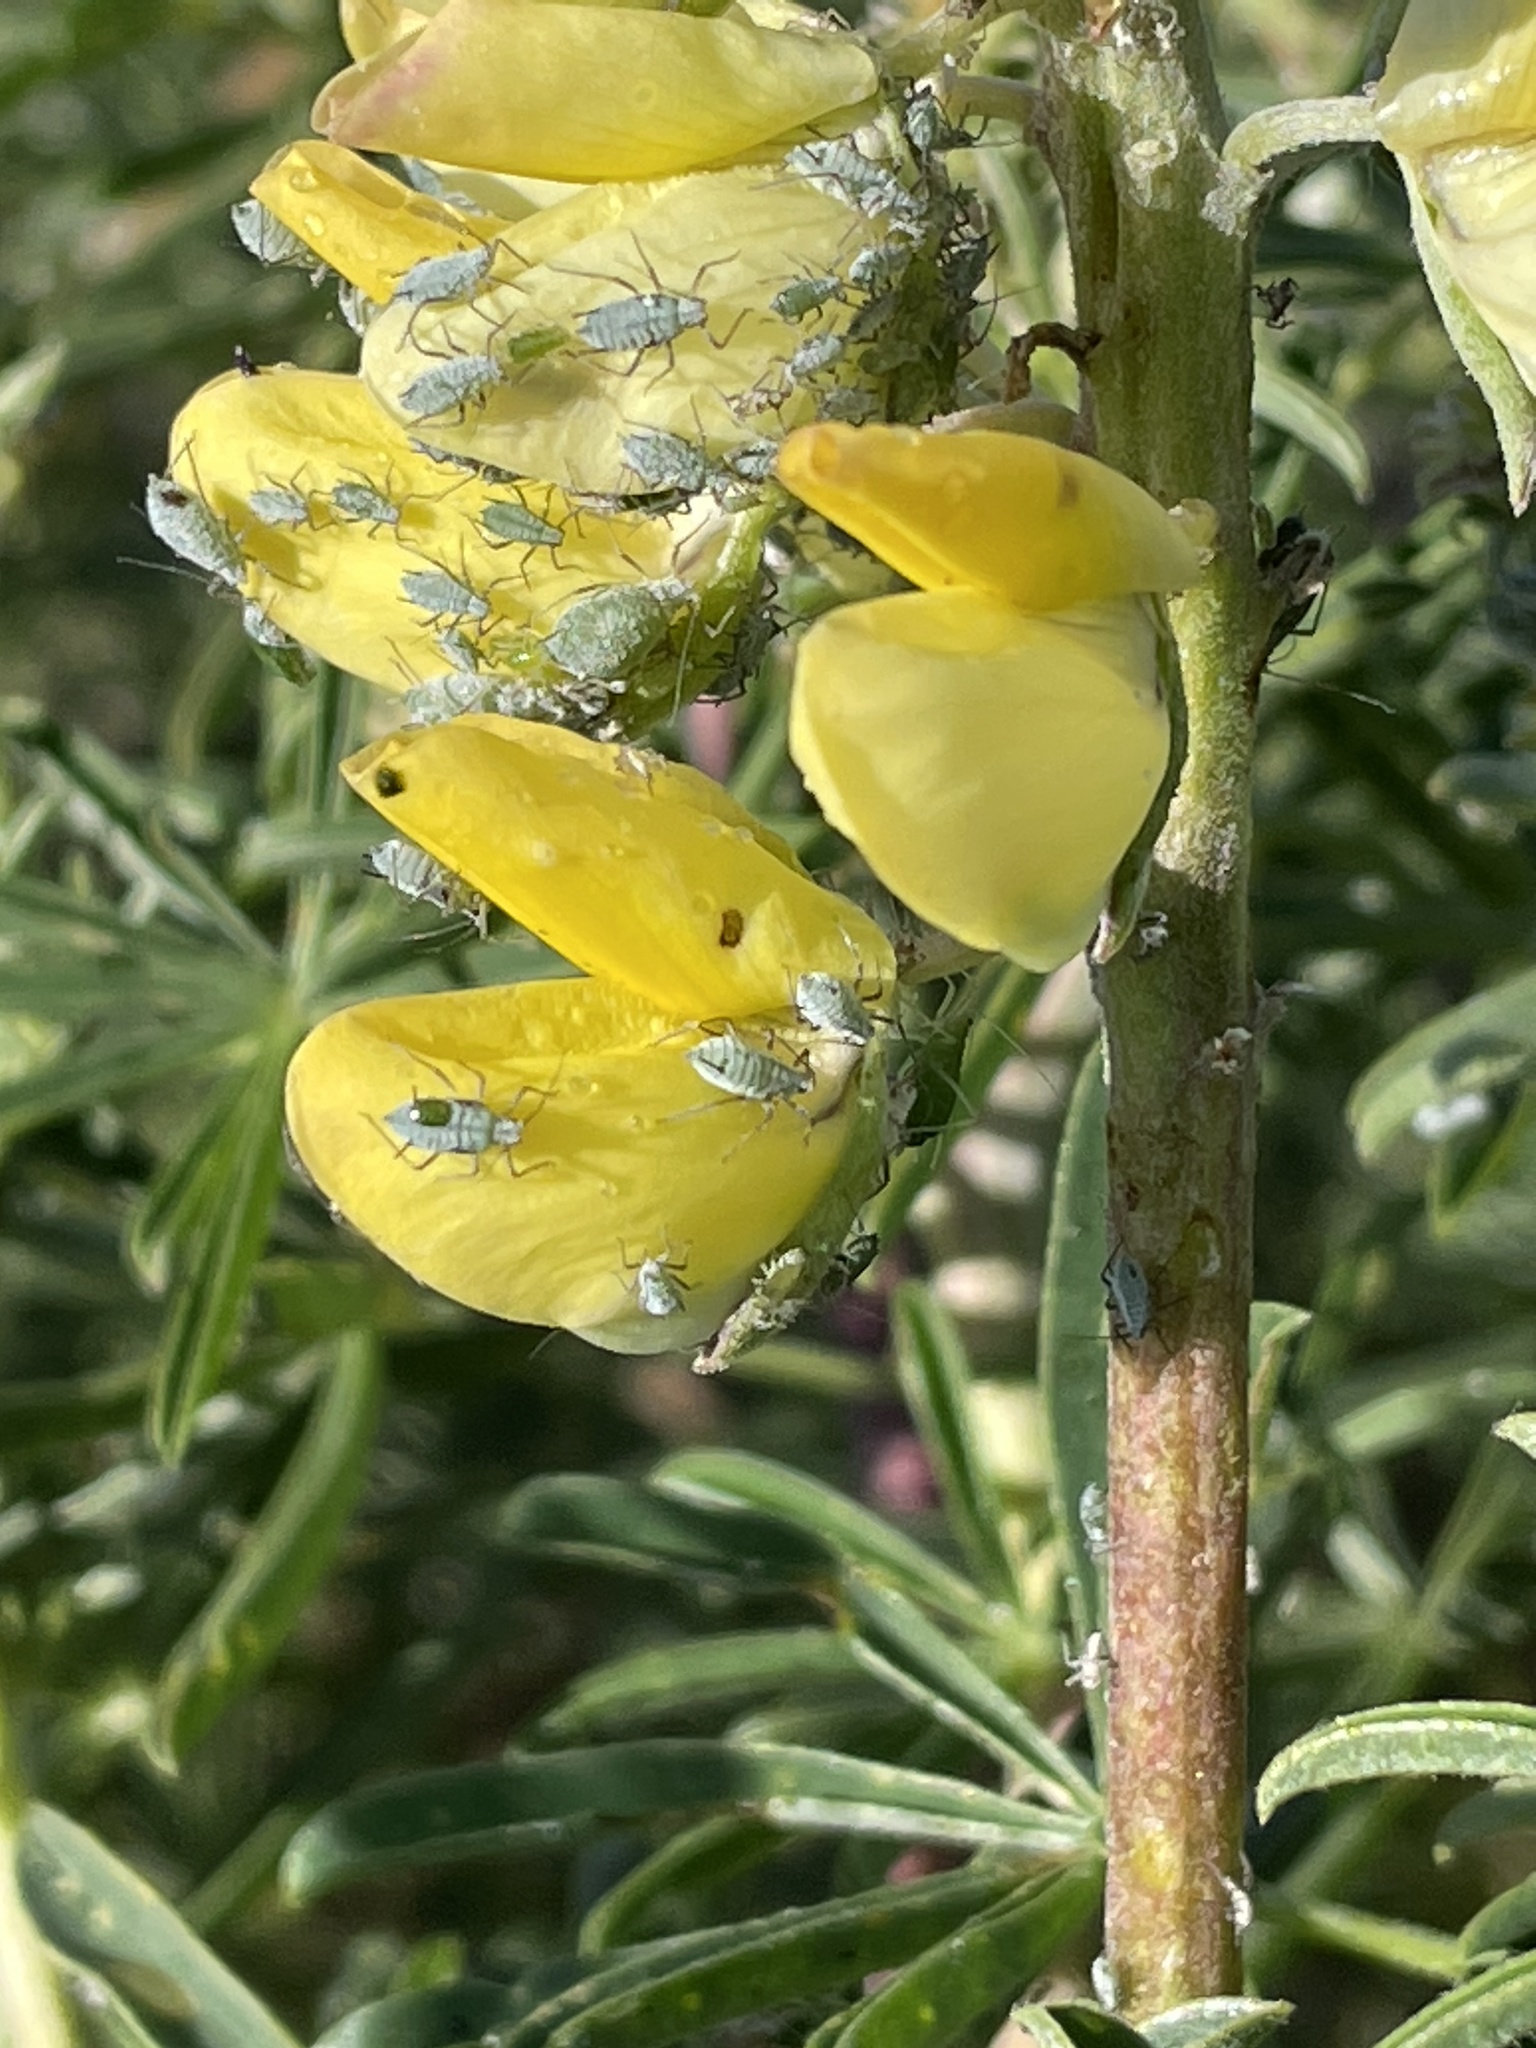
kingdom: Animalia
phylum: Arthropoda
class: Insecta
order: Hemiptera
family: Aphididae
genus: Macrosiphum
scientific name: Macrosiphum albifrons
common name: Lupine aphid
